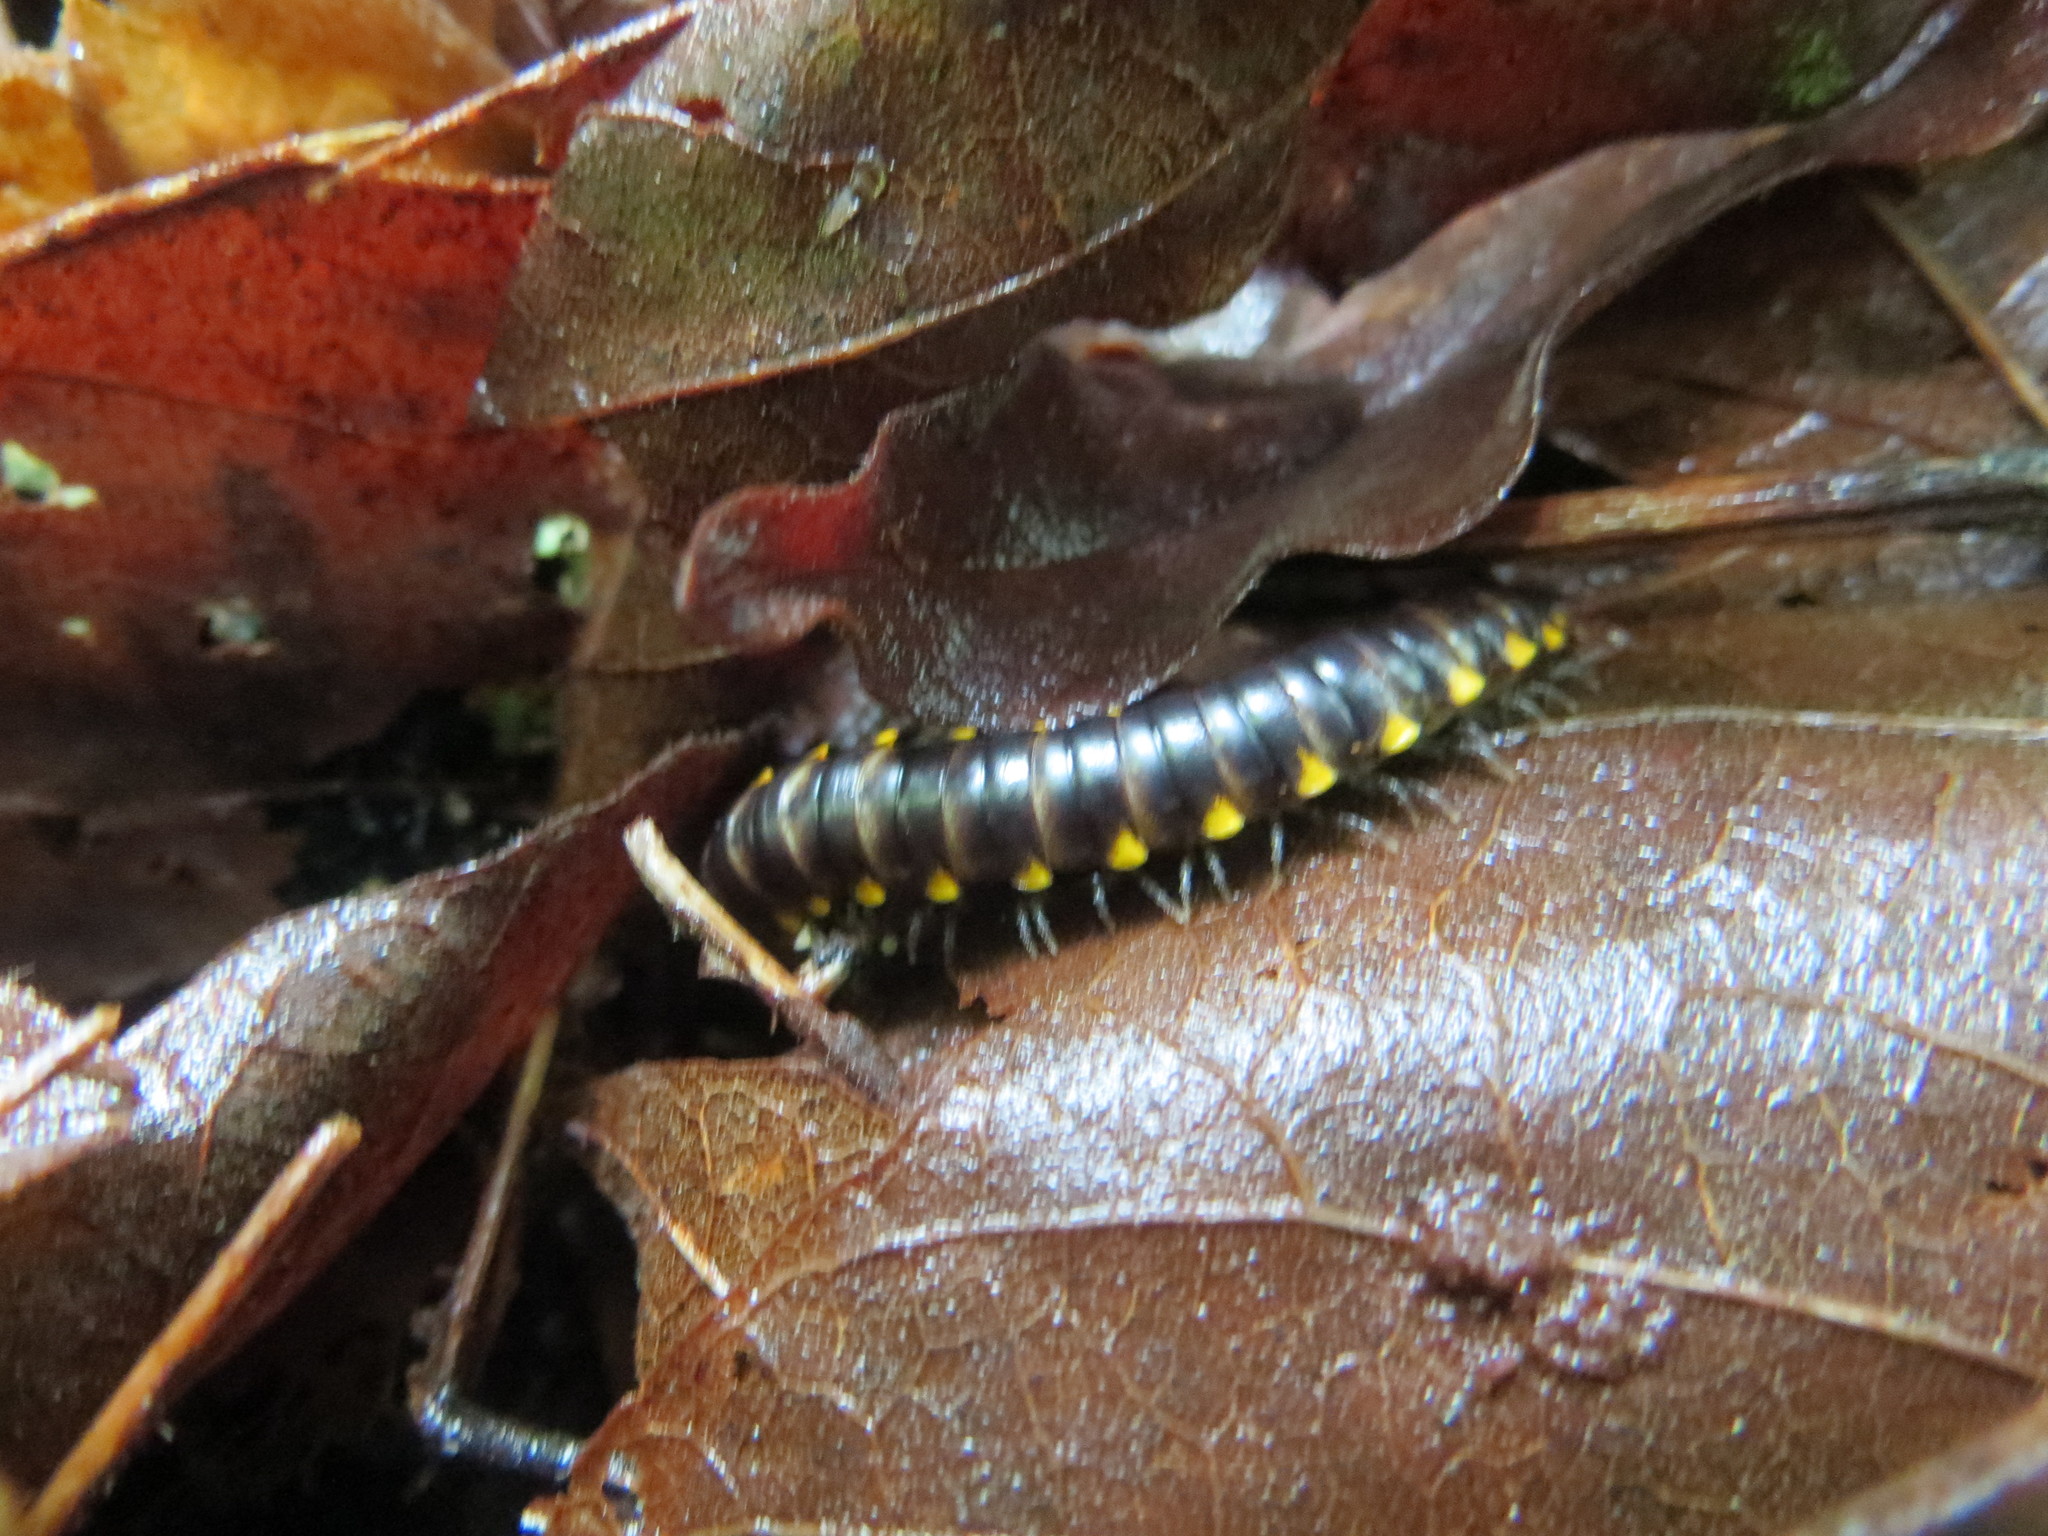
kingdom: Animalia
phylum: Arthropoda
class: Diplopoda
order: Polydesmida
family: Xystodesmidae
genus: Harpaphe
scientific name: Harpaphe haydeniana
